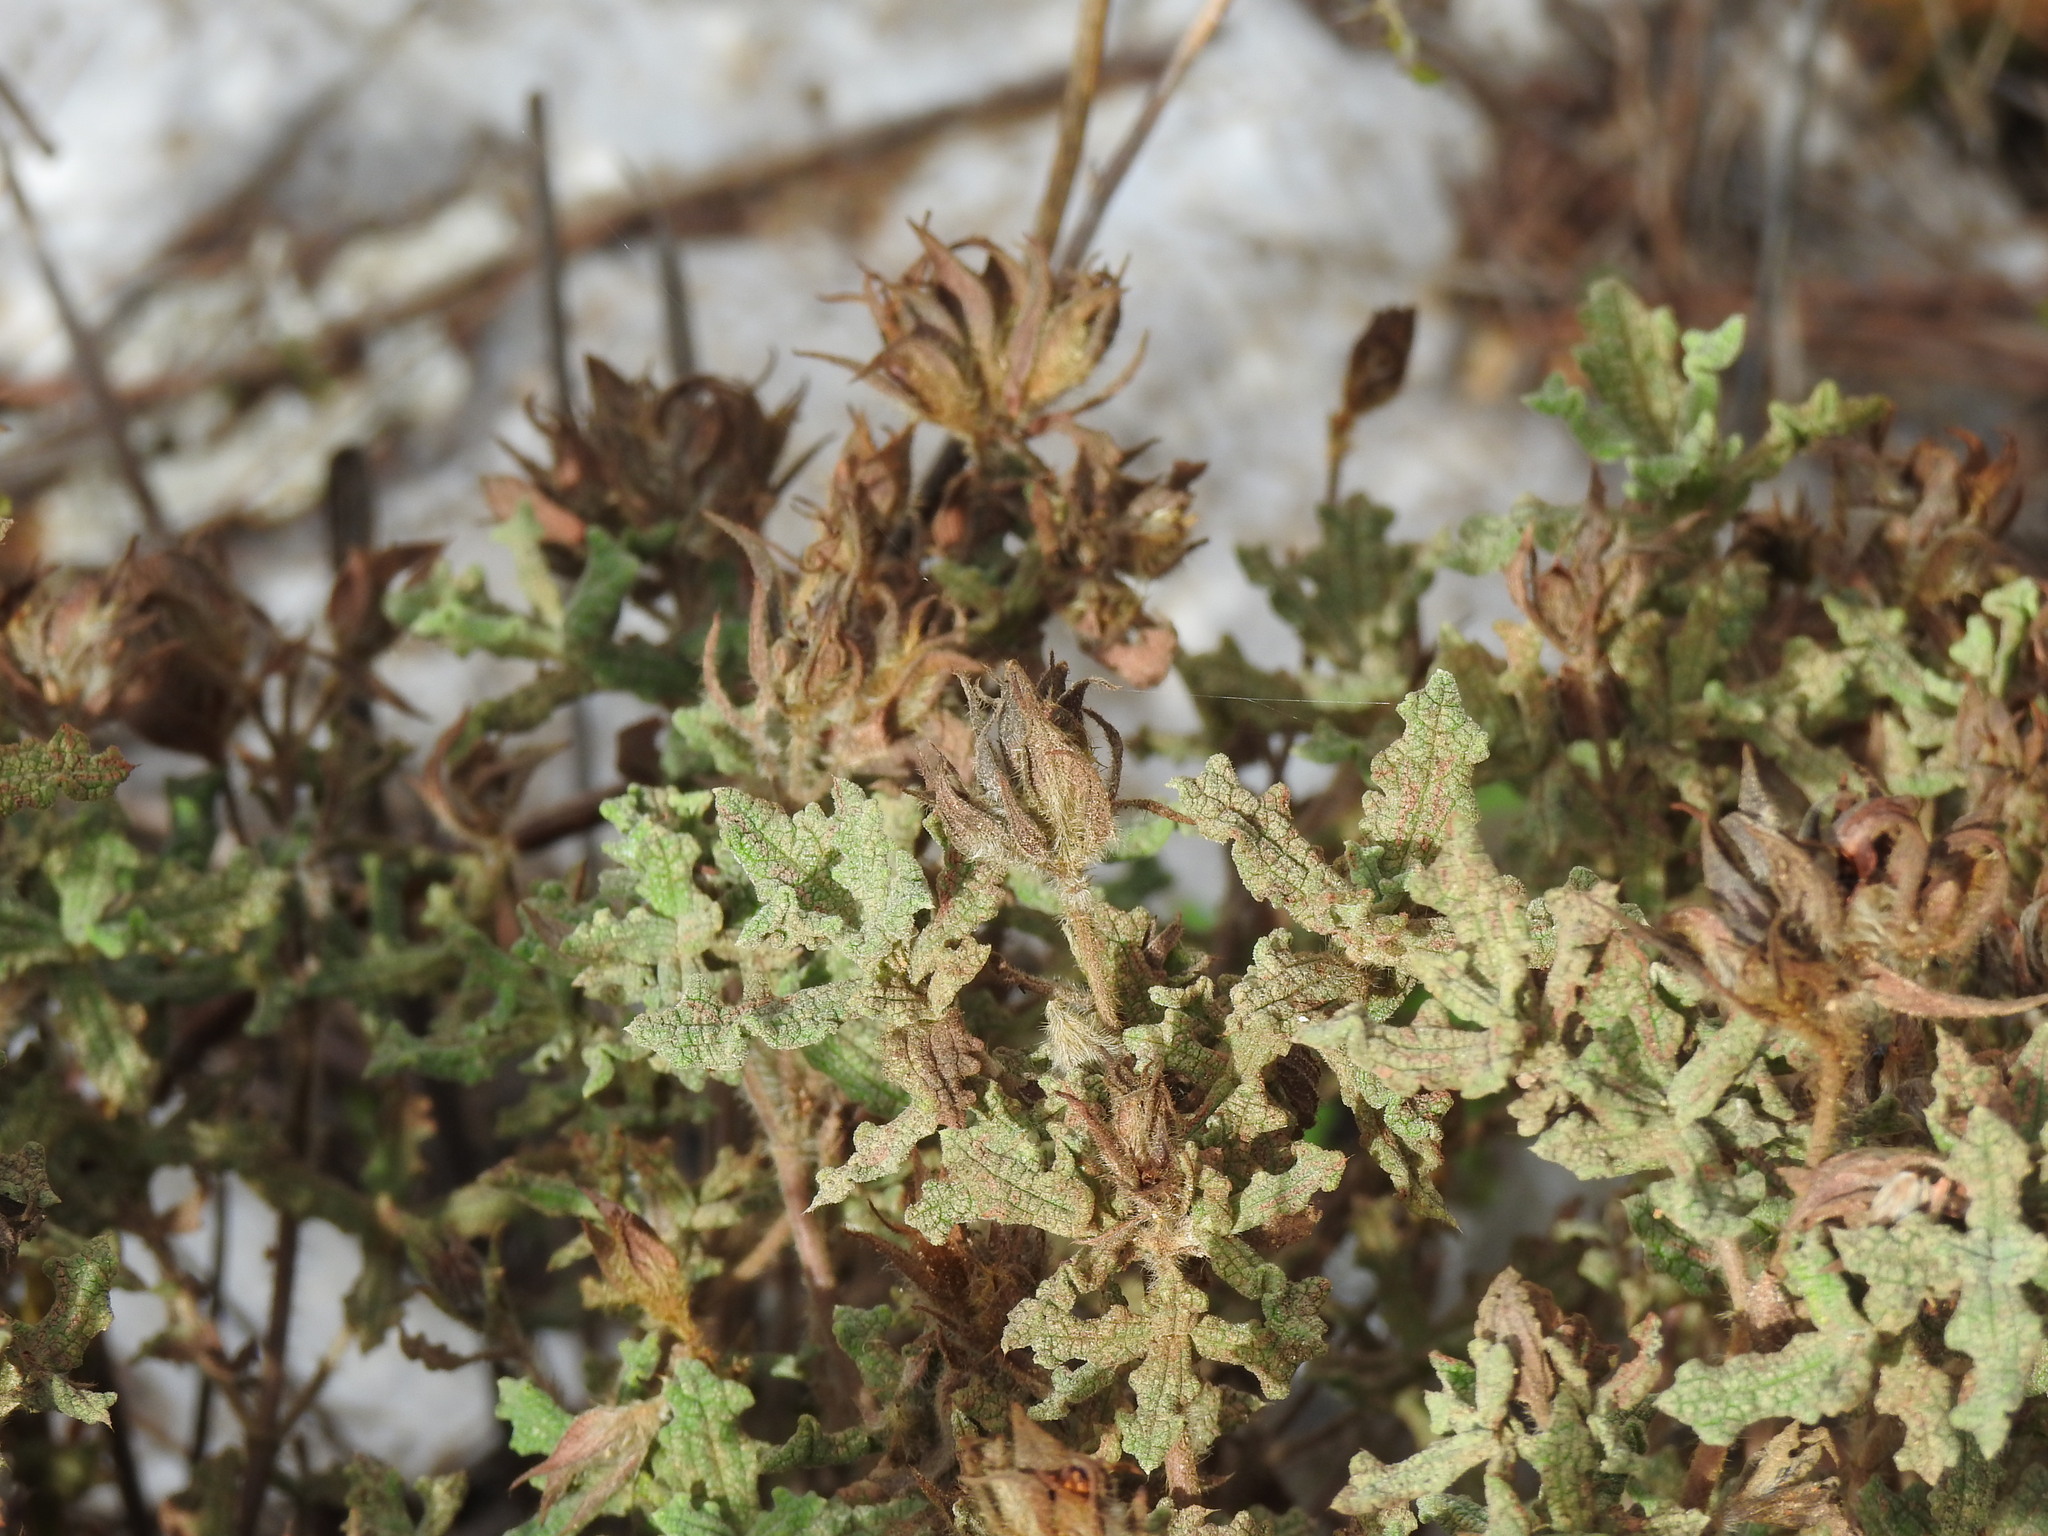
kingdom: Plantae
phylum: Tracheophyta
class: Magnoliopsida
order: Malvales
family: Cistaceae
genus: Cistus
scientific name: Cistus crispus
